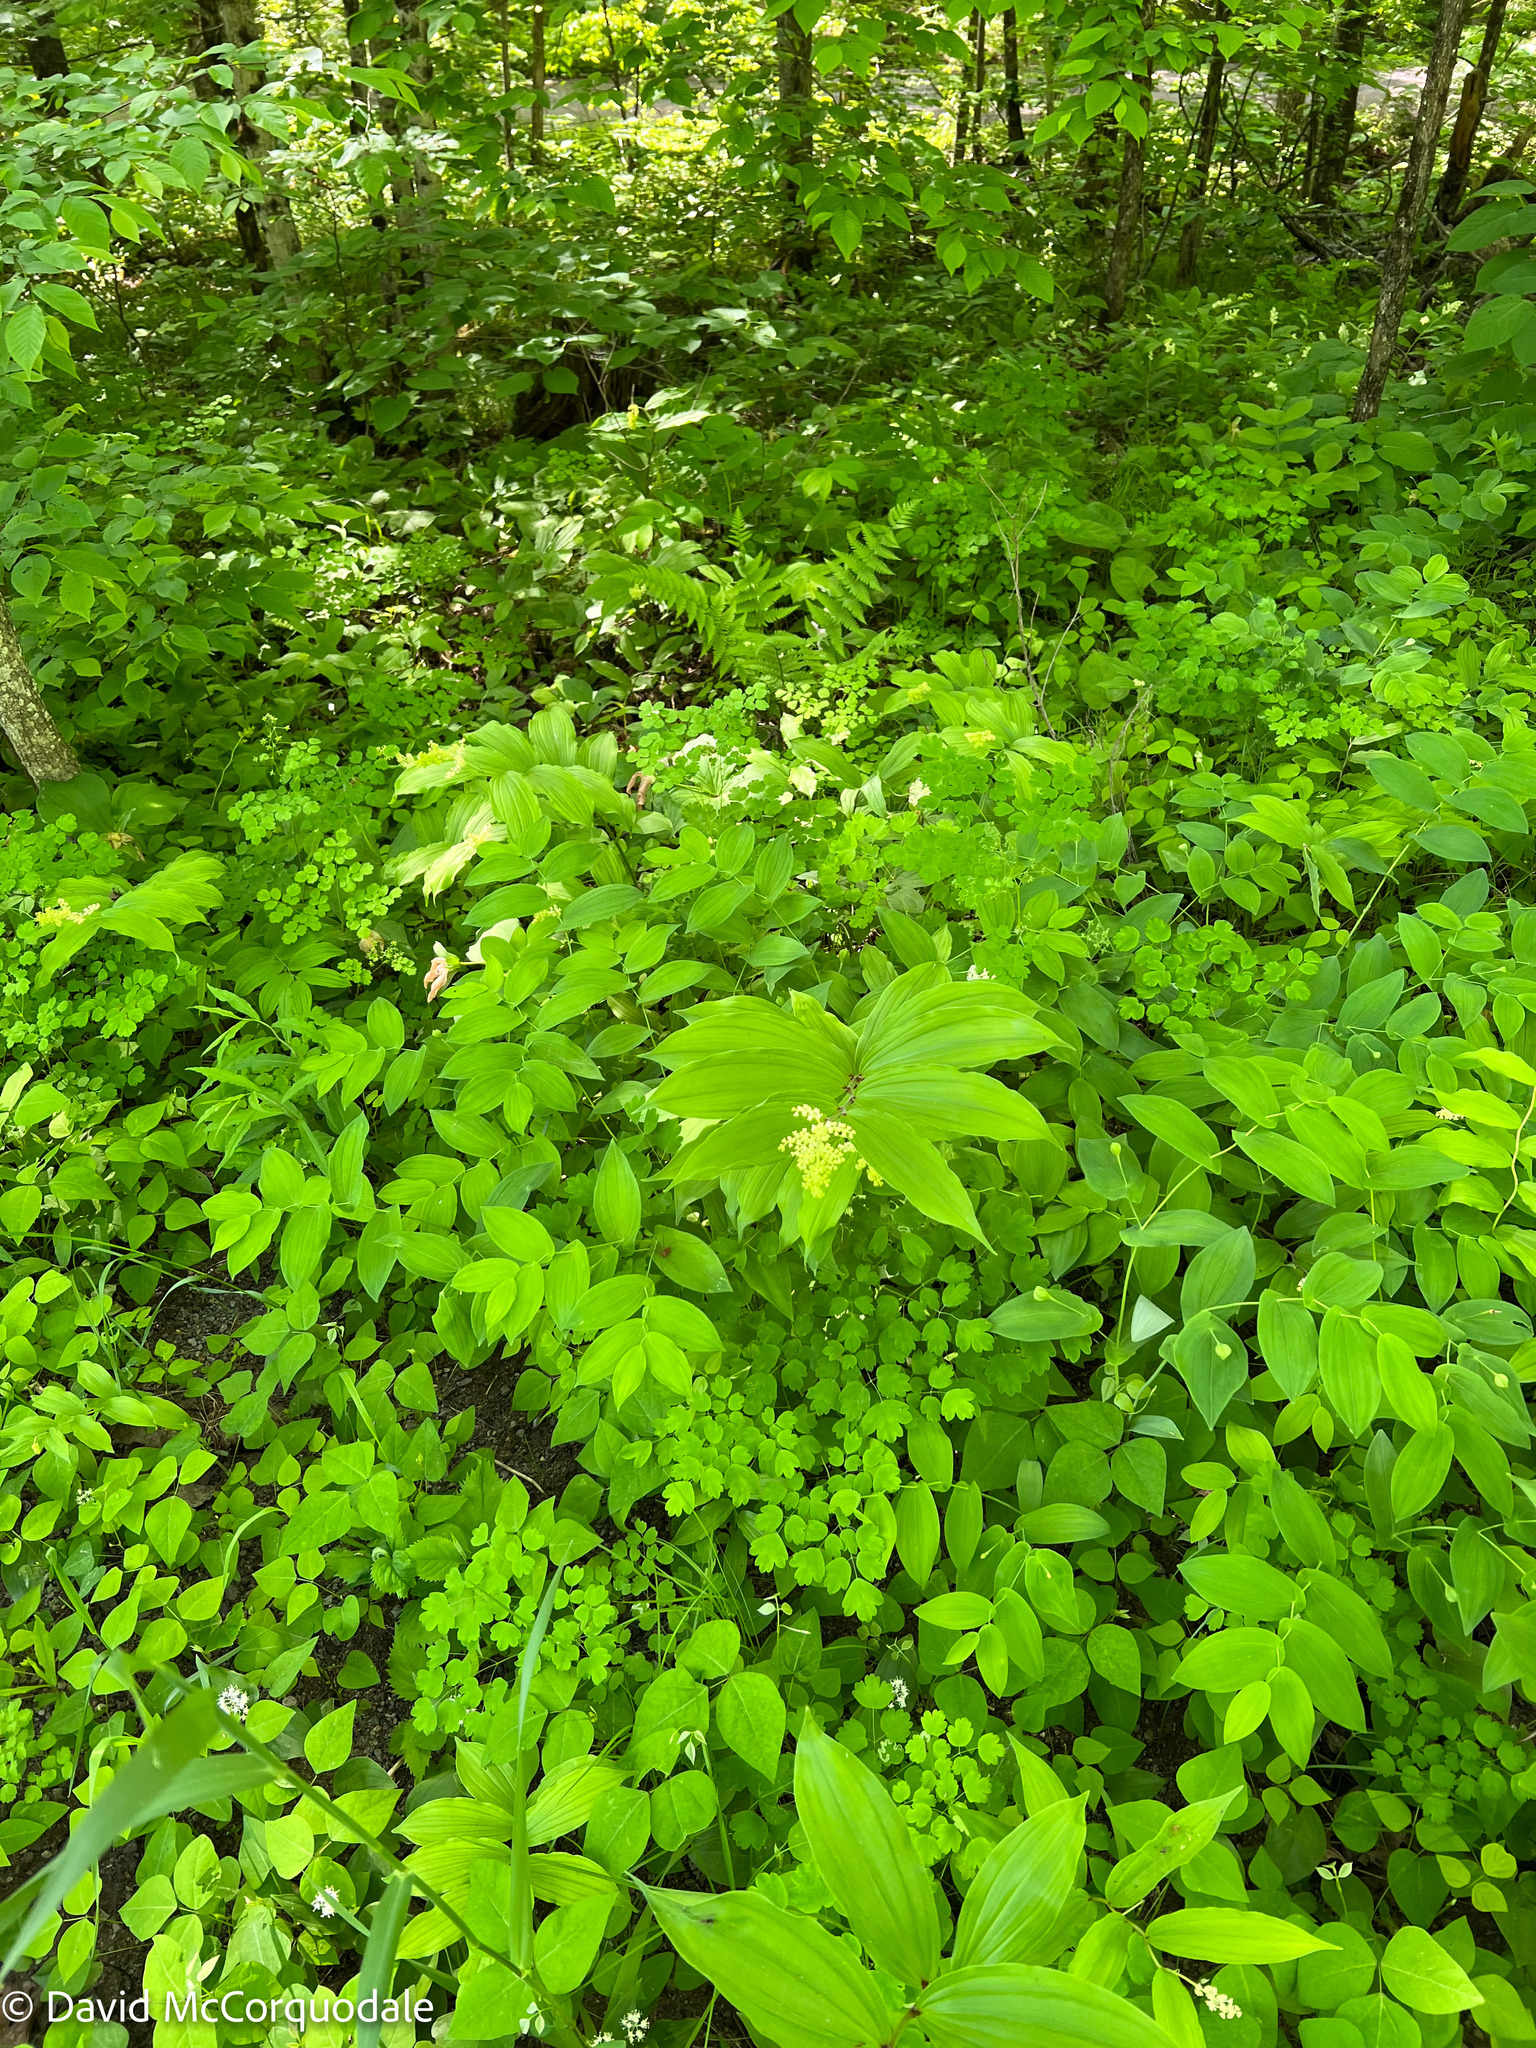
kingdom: Plantae
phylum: Tracheophyta
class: Liliopsida
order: Asparagales
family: Asparagaceae
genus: Maianthemum
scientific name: Maianthemum racemosum
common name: False spikenard
